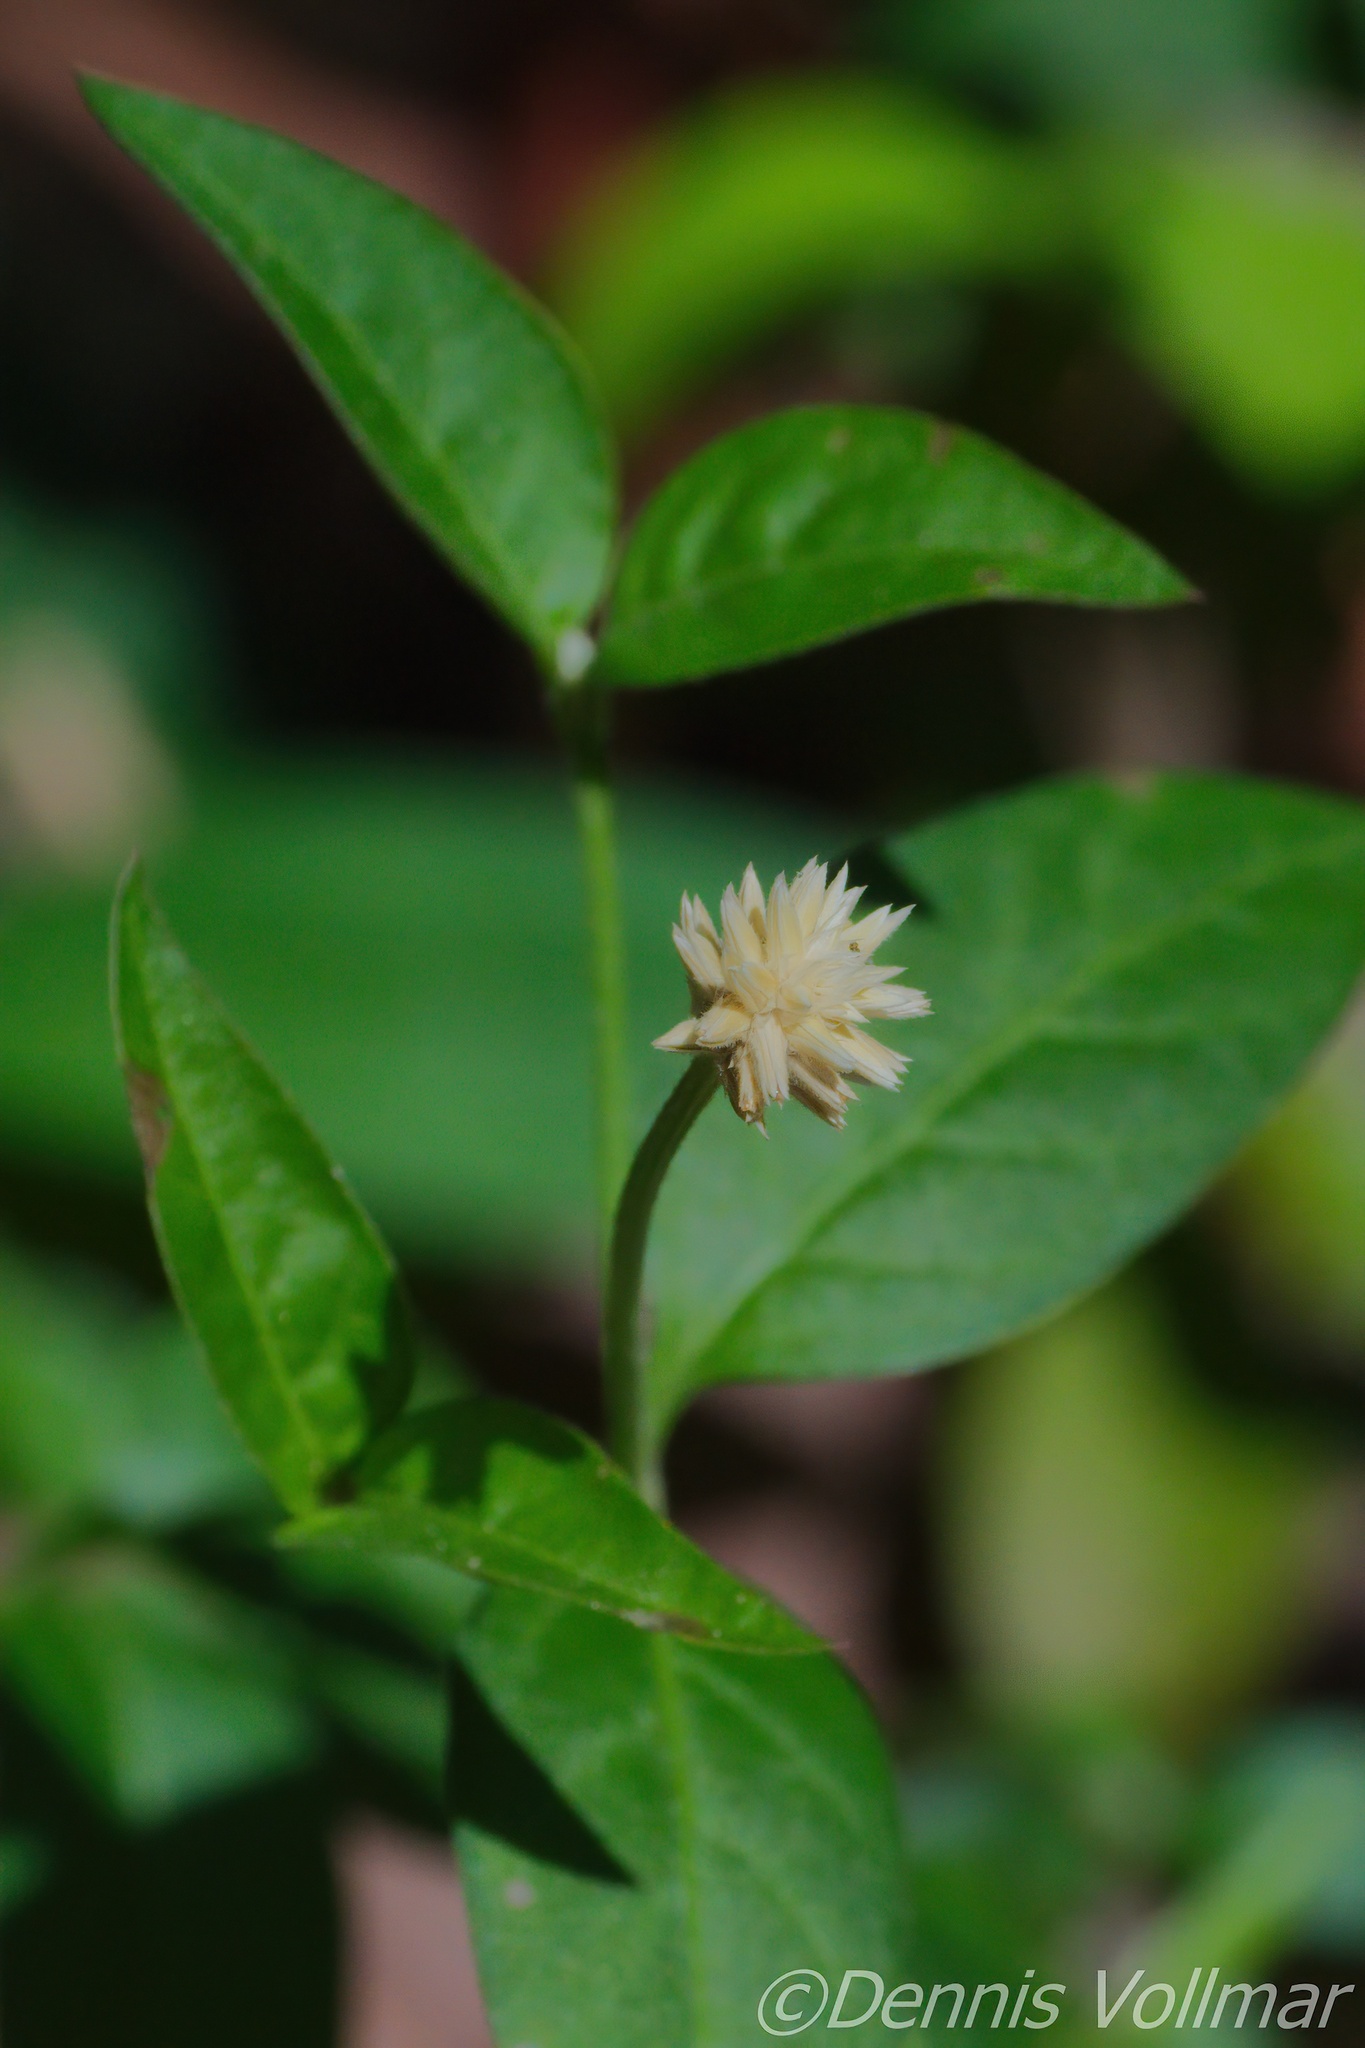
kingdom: Plantae
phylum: Tracheophyta
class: Magnoliopsida
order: Caryophyllales
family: Amaranthaceae
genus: Alternanthera
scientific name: Alternanthera flavescens
